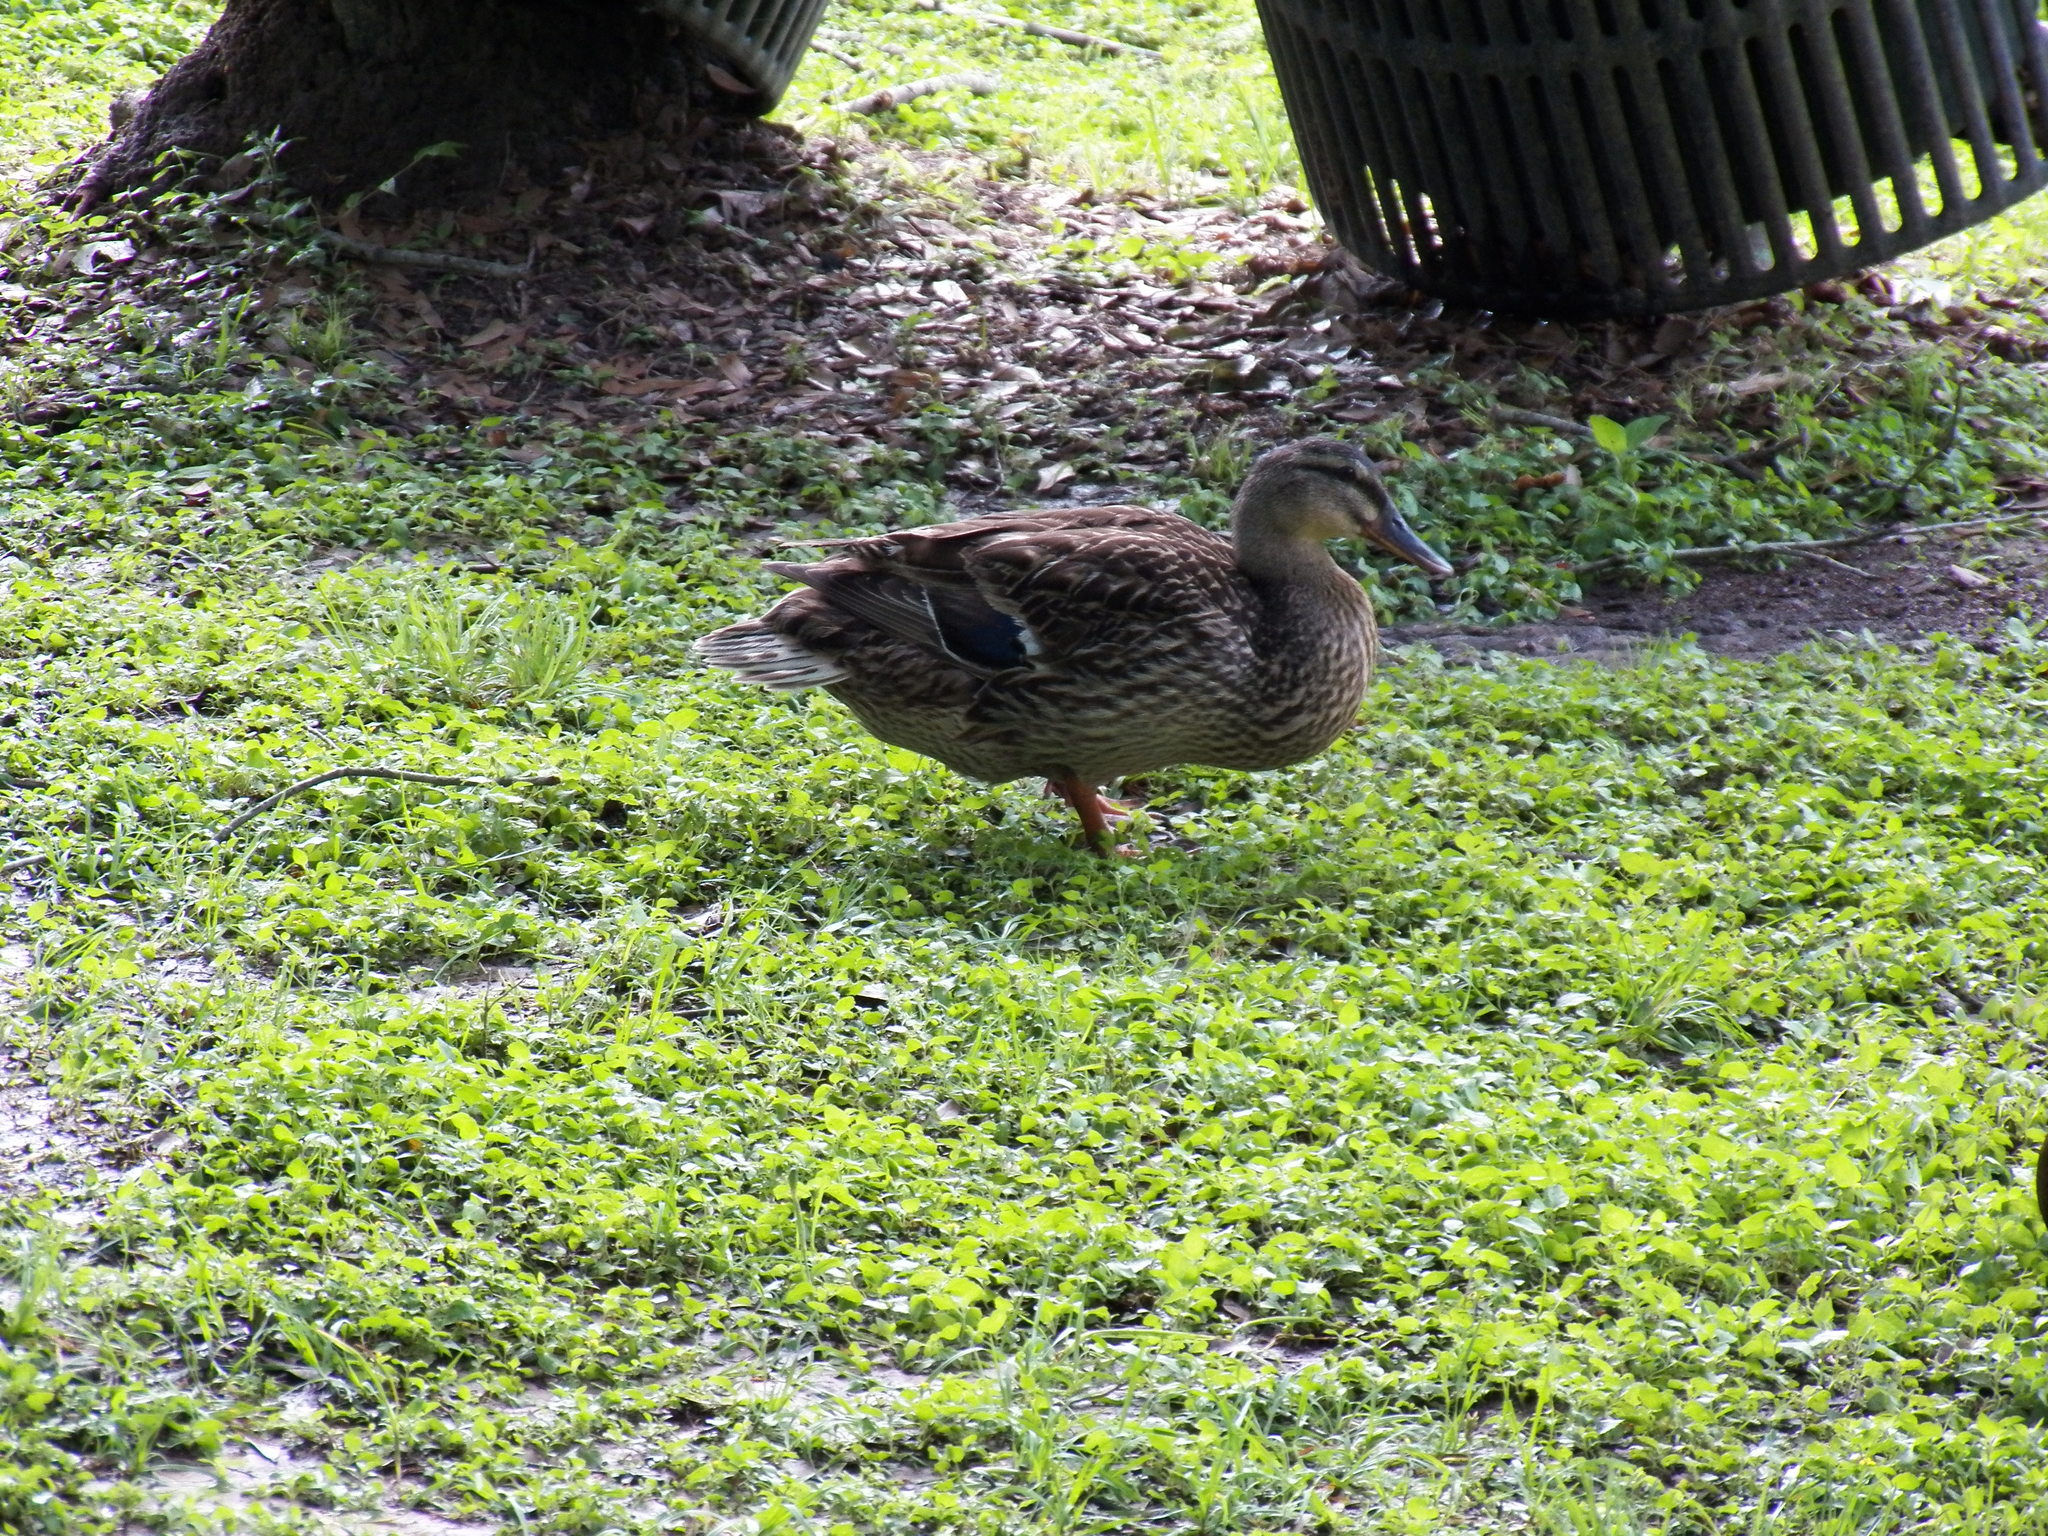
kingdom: Animalia
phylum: Chordata
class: Aves
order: Anseriformes
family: Anatidae
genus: Anas
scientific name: Anas platyrhynchos
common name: Mallard
